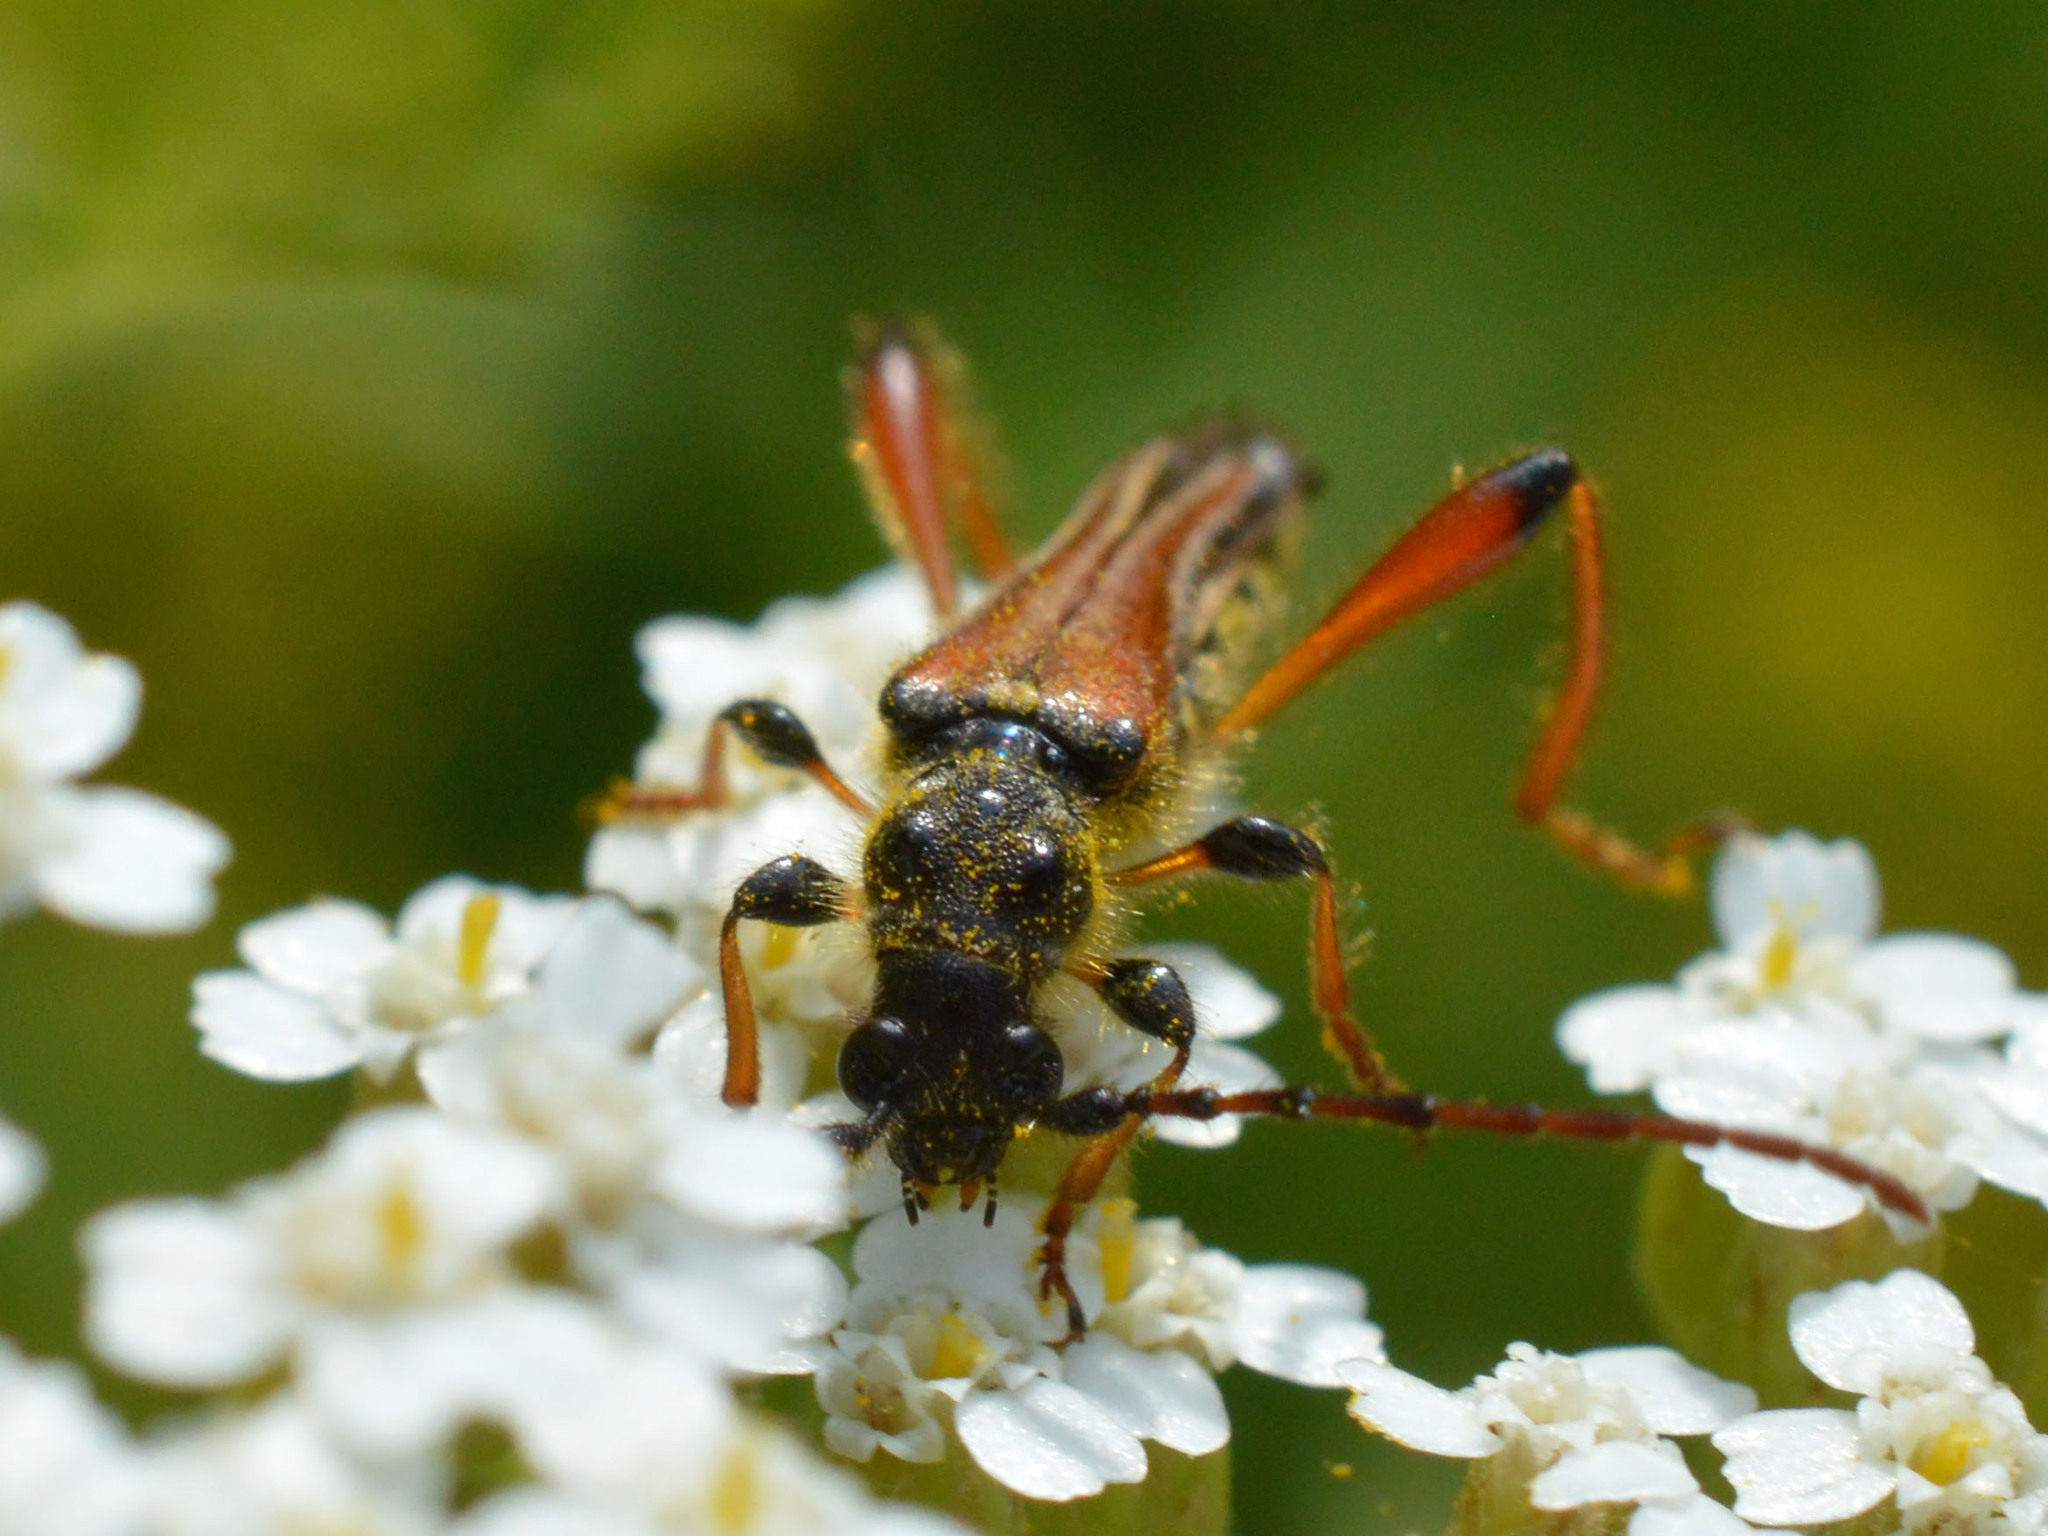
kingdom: Animalia
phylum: Arthropoda
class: Insecta
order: Coleoptera
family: Cerambycidae
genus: Stenopterus
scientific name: Stenopterus rufus
